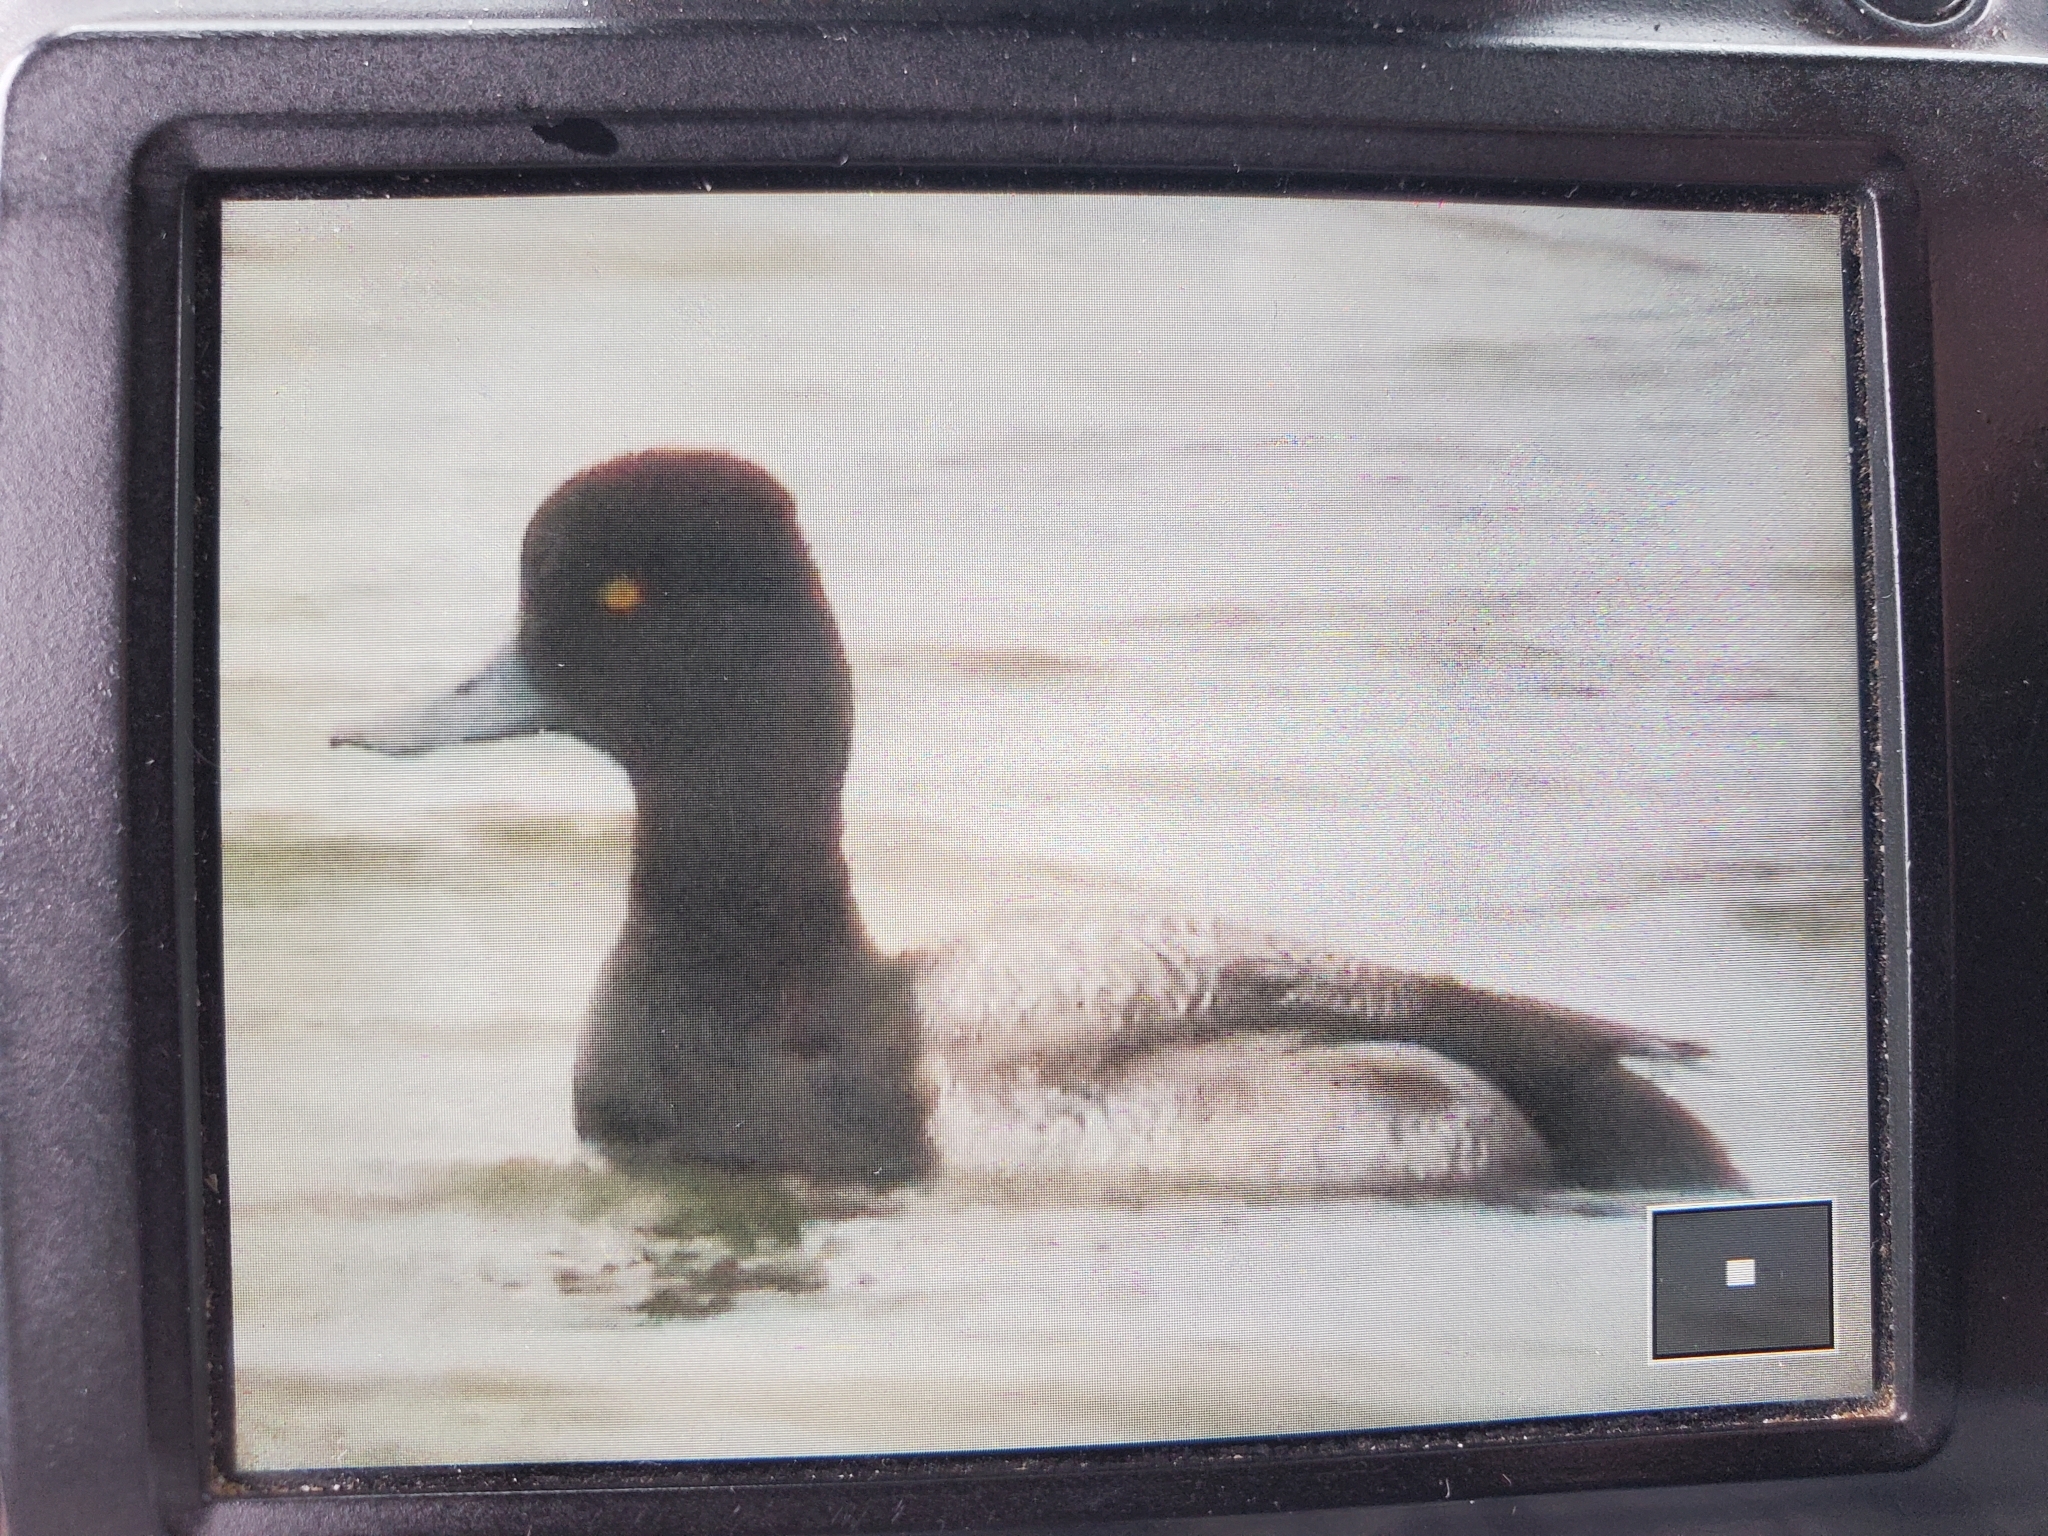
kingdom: Animalia
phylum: Chordata
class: Aves
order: Anseriformes
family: Anatidae
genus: Aythya
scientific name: Aythya affinis
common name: Lesser scaup
